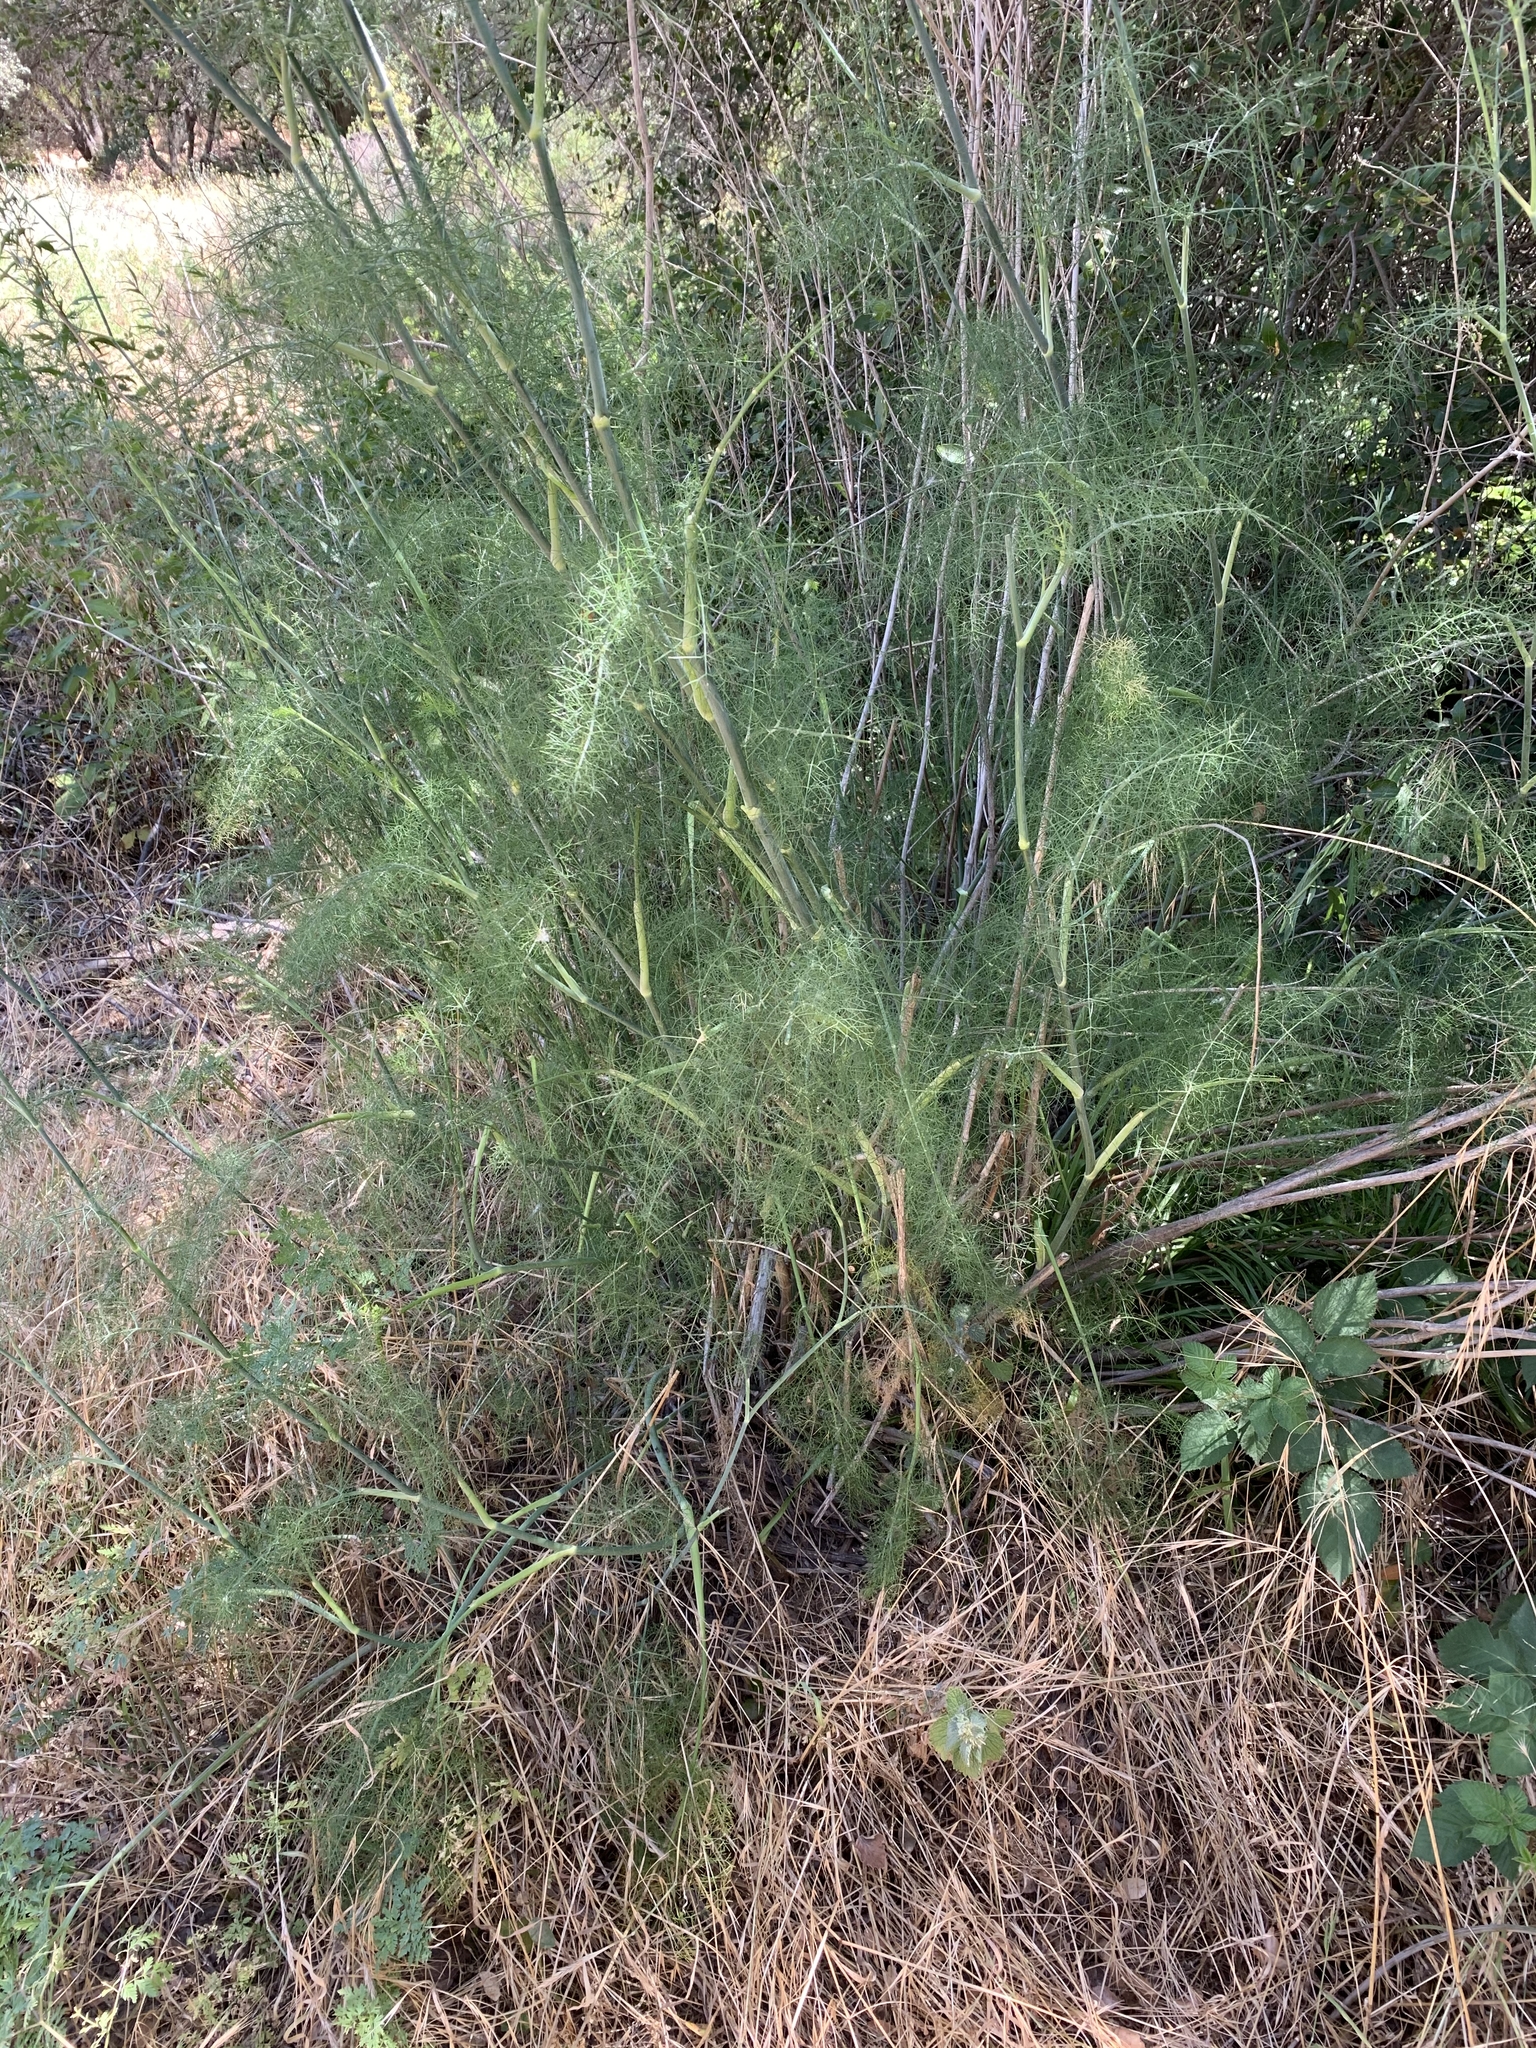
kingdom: Plantae
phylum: Tracheophyta
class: Magnoliopsida
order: Apiales
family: Apiaceae
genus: Foeniculum
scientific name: Foeniculum vulgare
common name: Fennel
